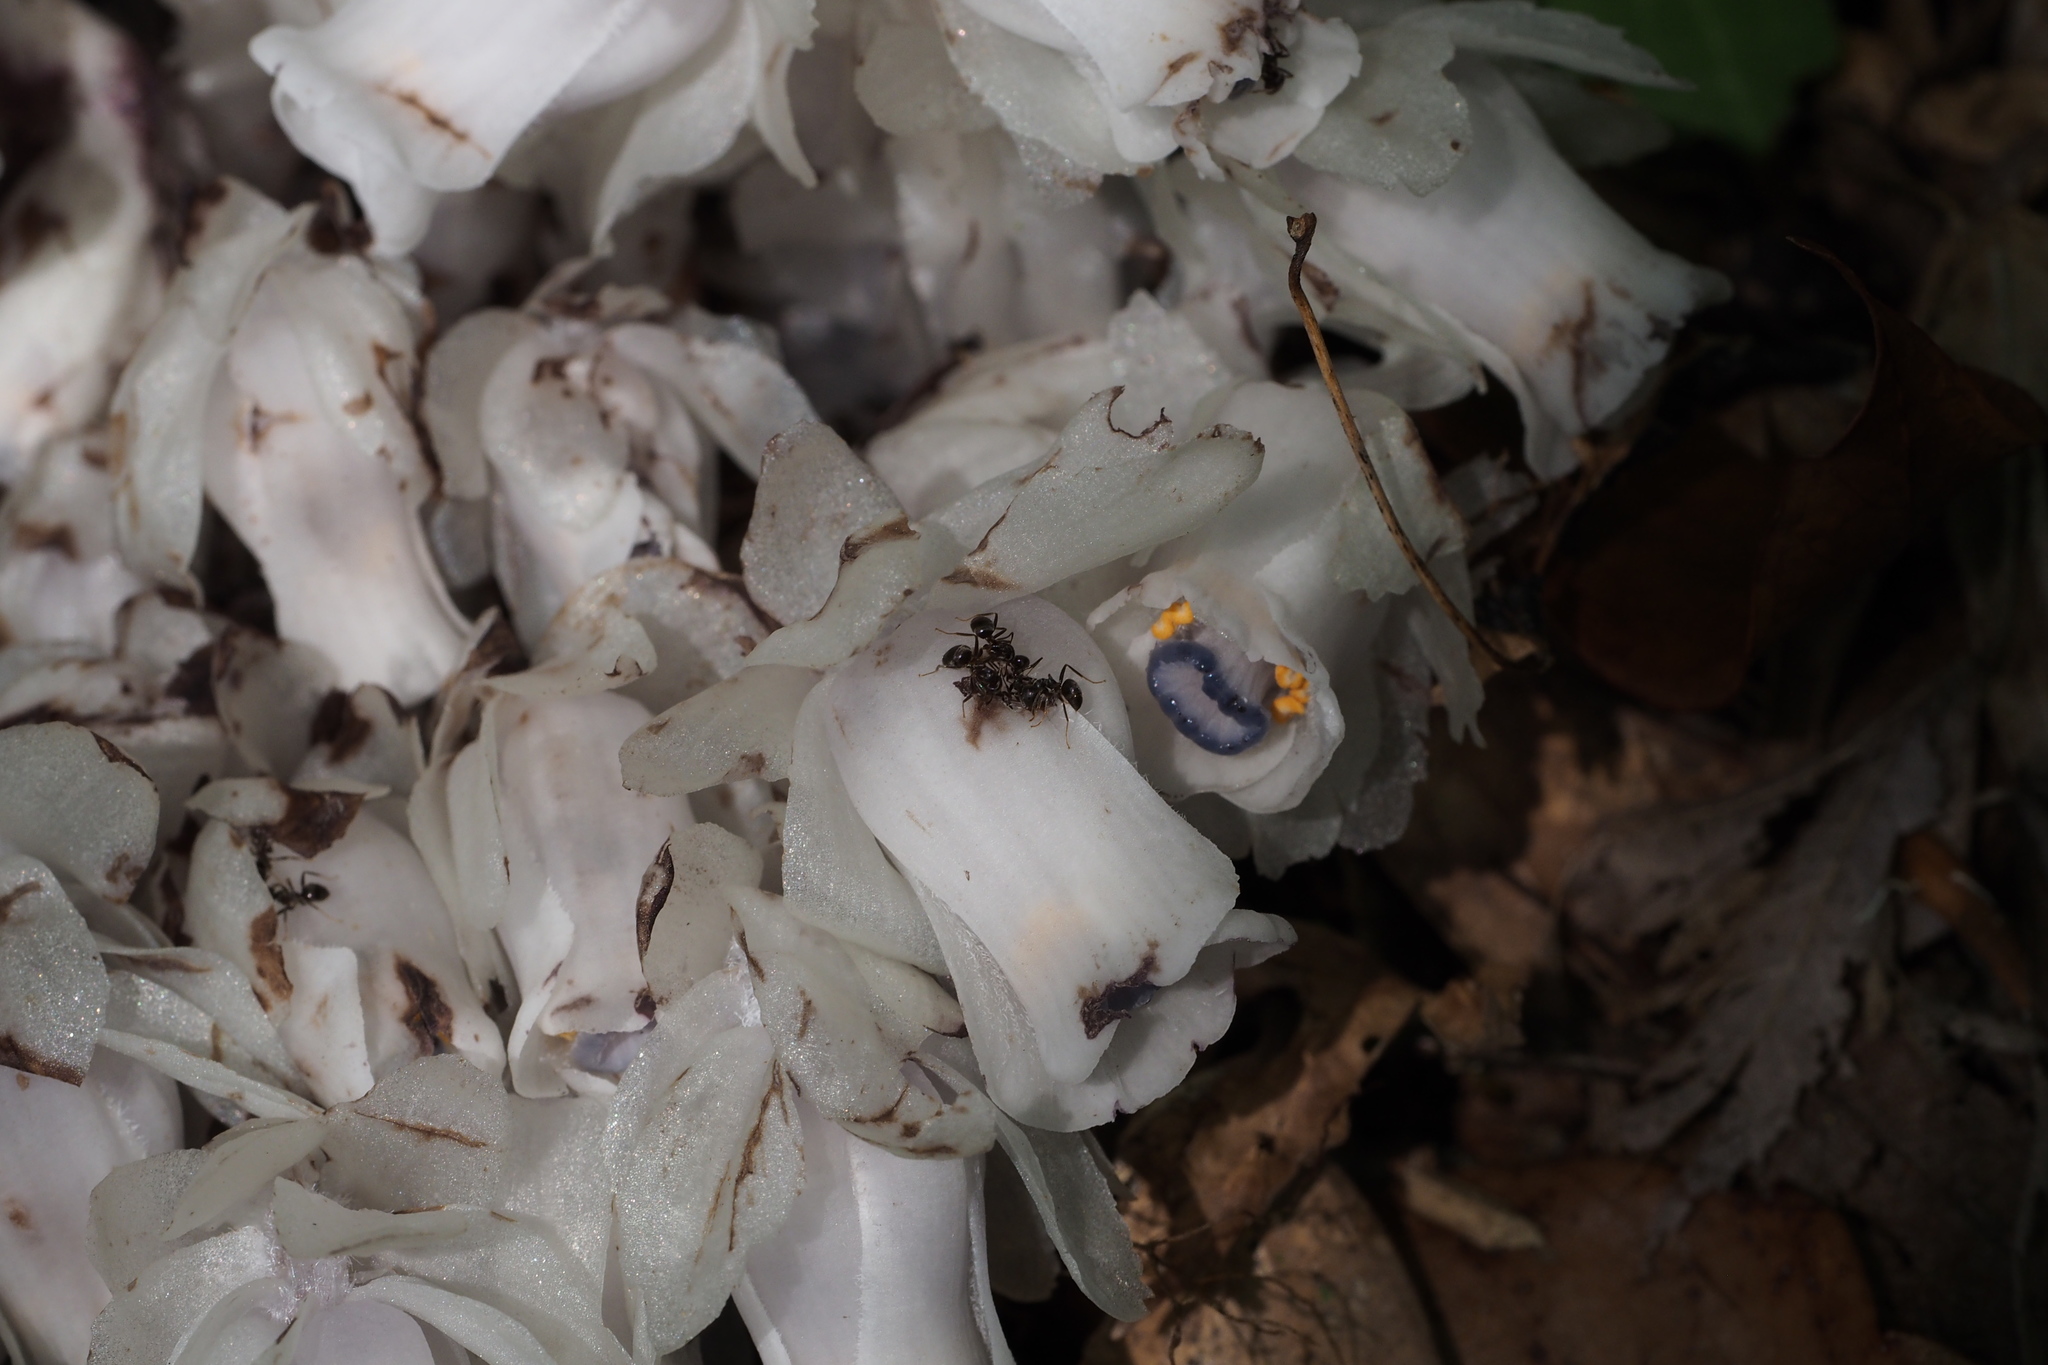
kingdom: Plantae
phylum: Tracheophyta
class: Magnoliopsida
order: Ericales
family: Ericaceae
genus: Monotropastrum
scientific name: Monotropastrum humile
